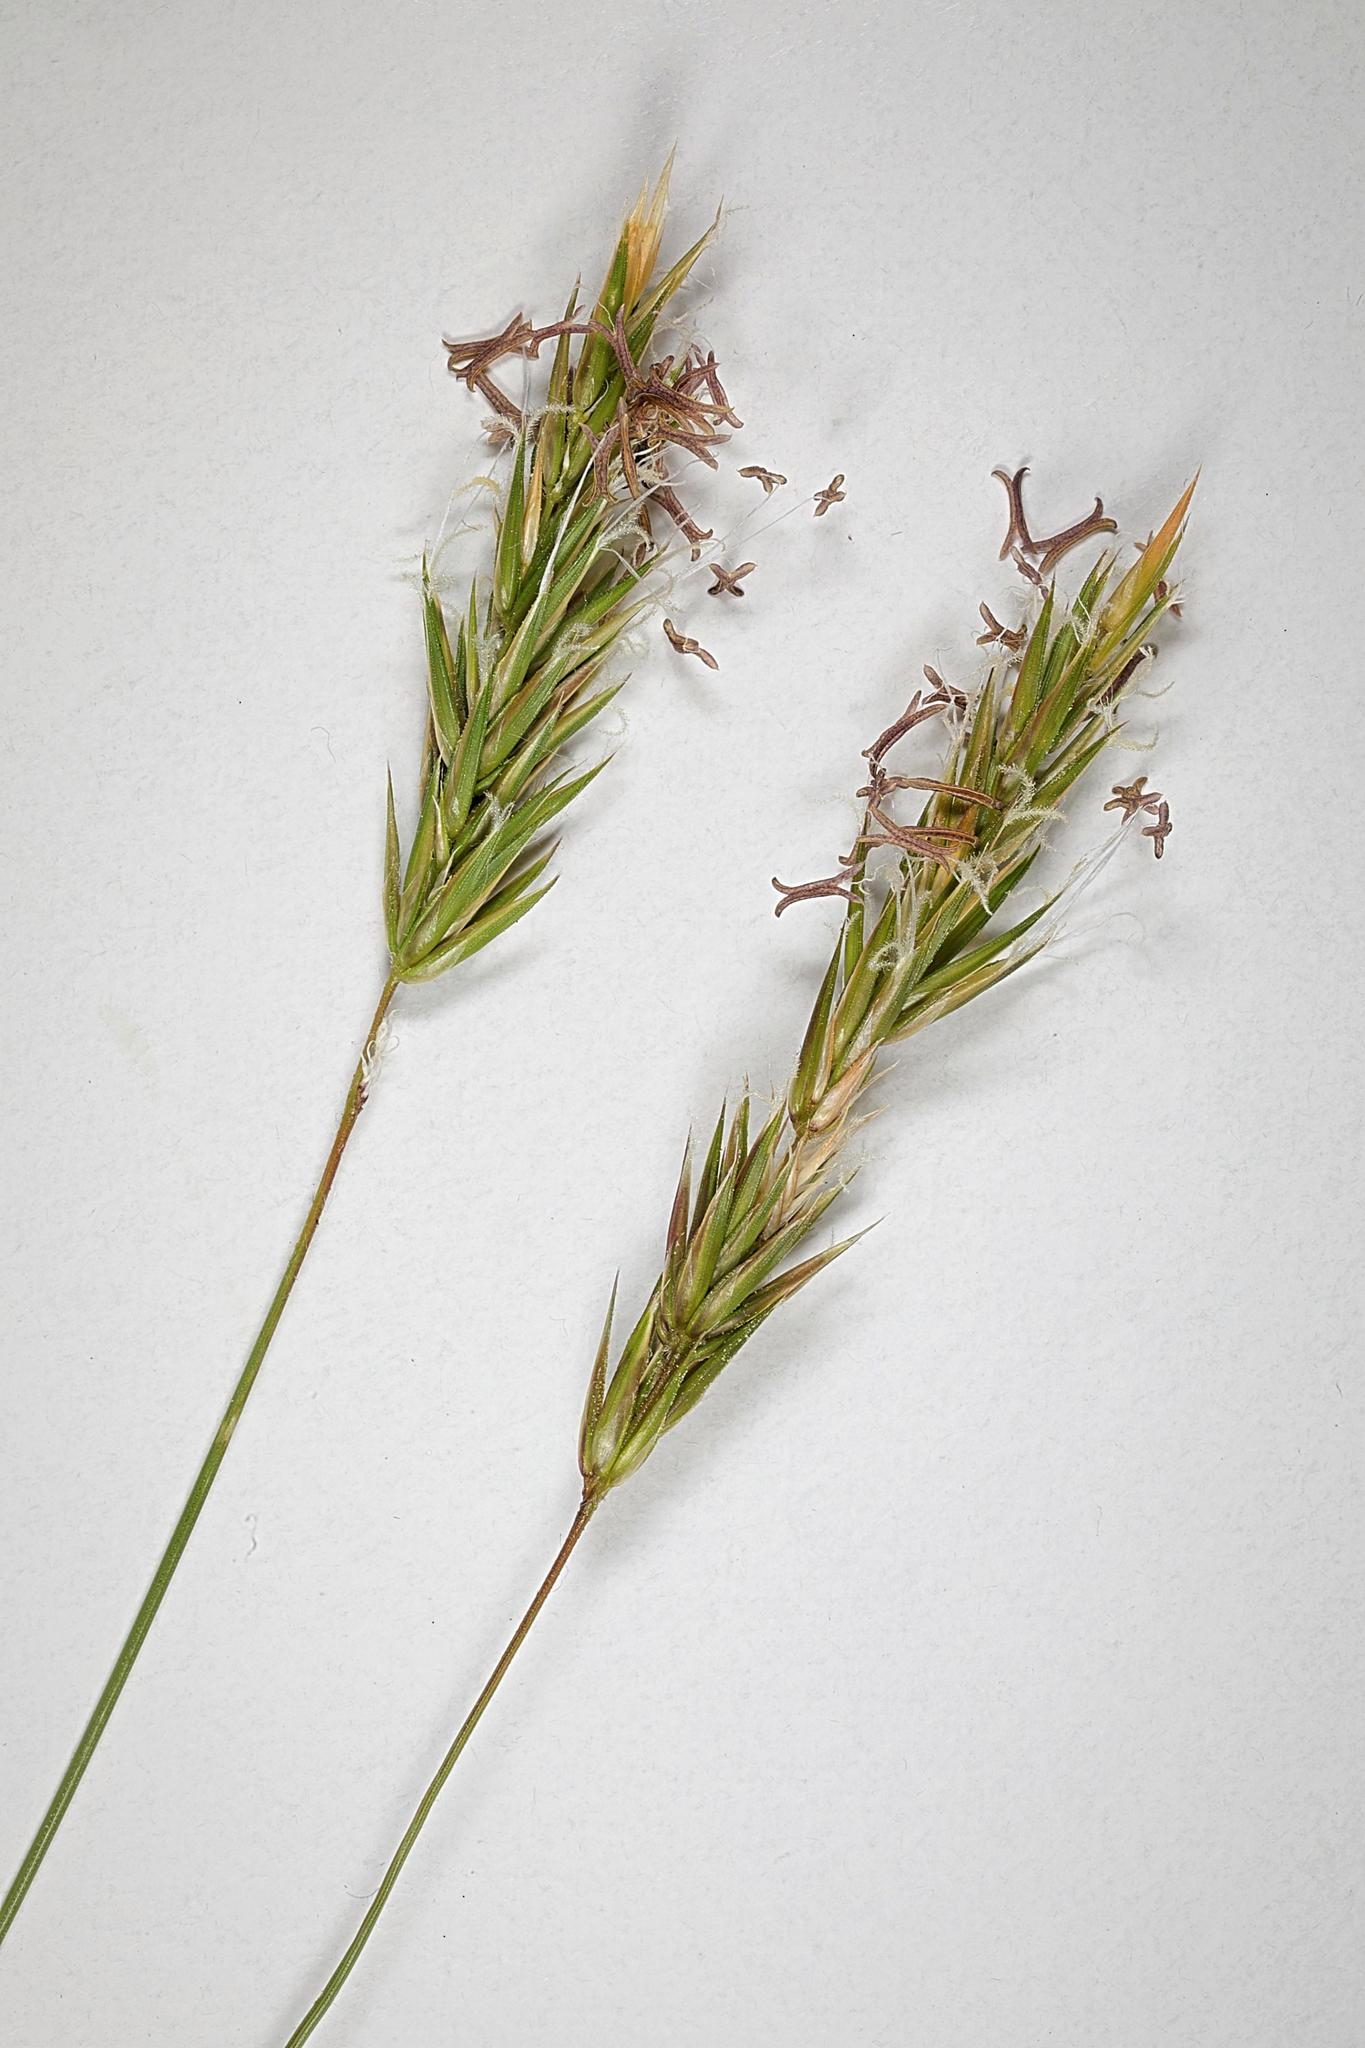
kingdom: Plantae
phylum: Tracheophyta
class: Liliopsida
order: Poales
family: Poaceae
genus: Anthoxanthum
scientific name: Anthoxanthum odoratum
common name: Sweet vernalgrass
